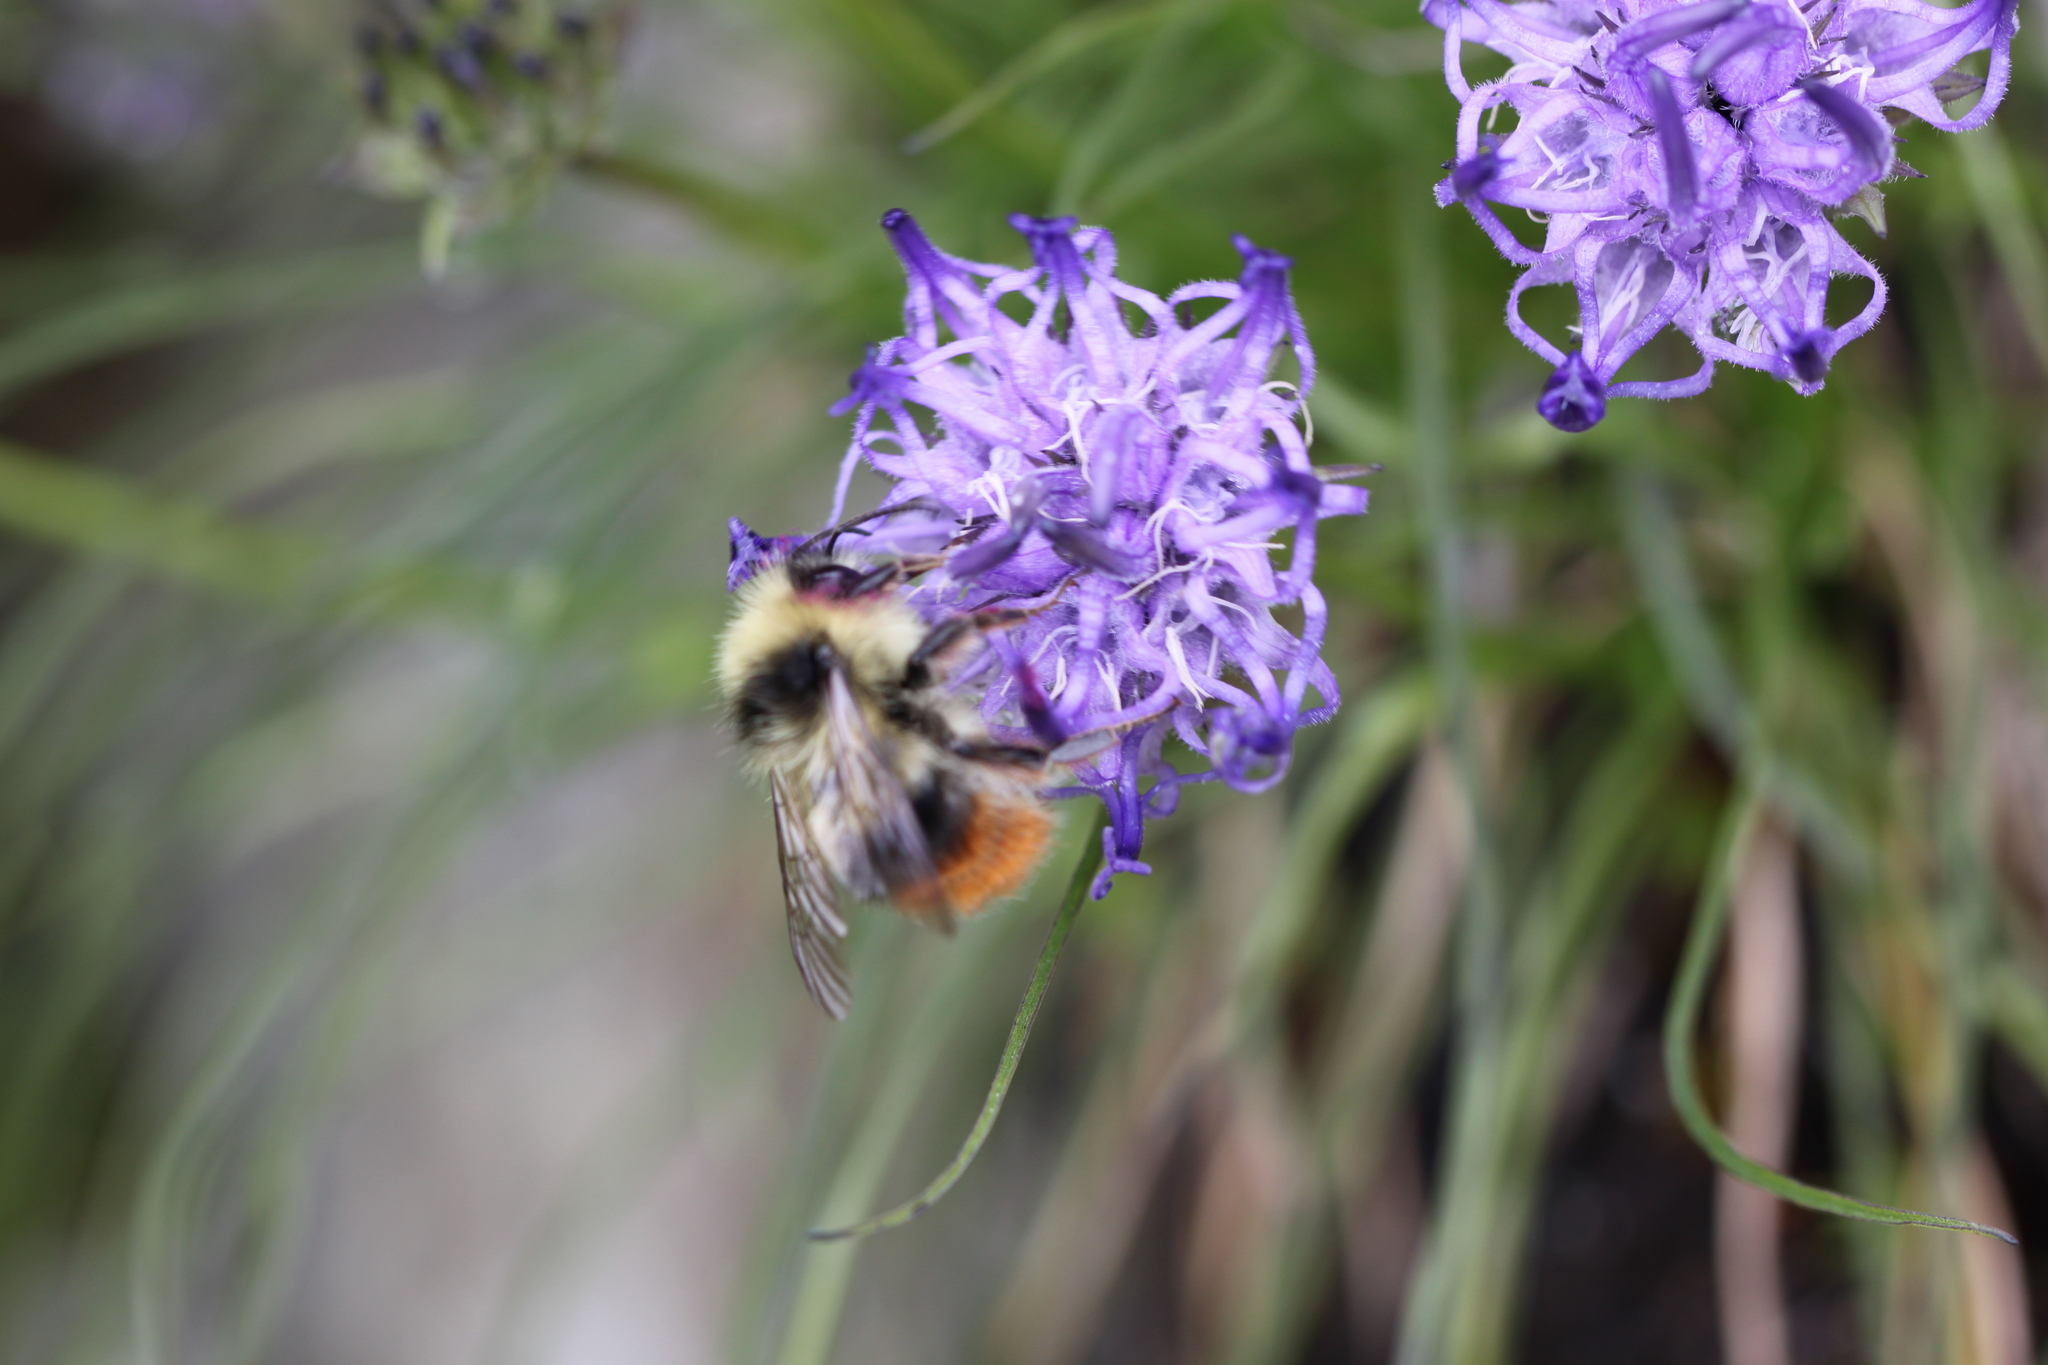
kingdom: Plantae
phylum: Tracheophyta
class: Magnoliopsida
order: Asterales
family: Campanulaceae
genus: Phyteuma
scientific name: Phyteuma hemisphaericum
